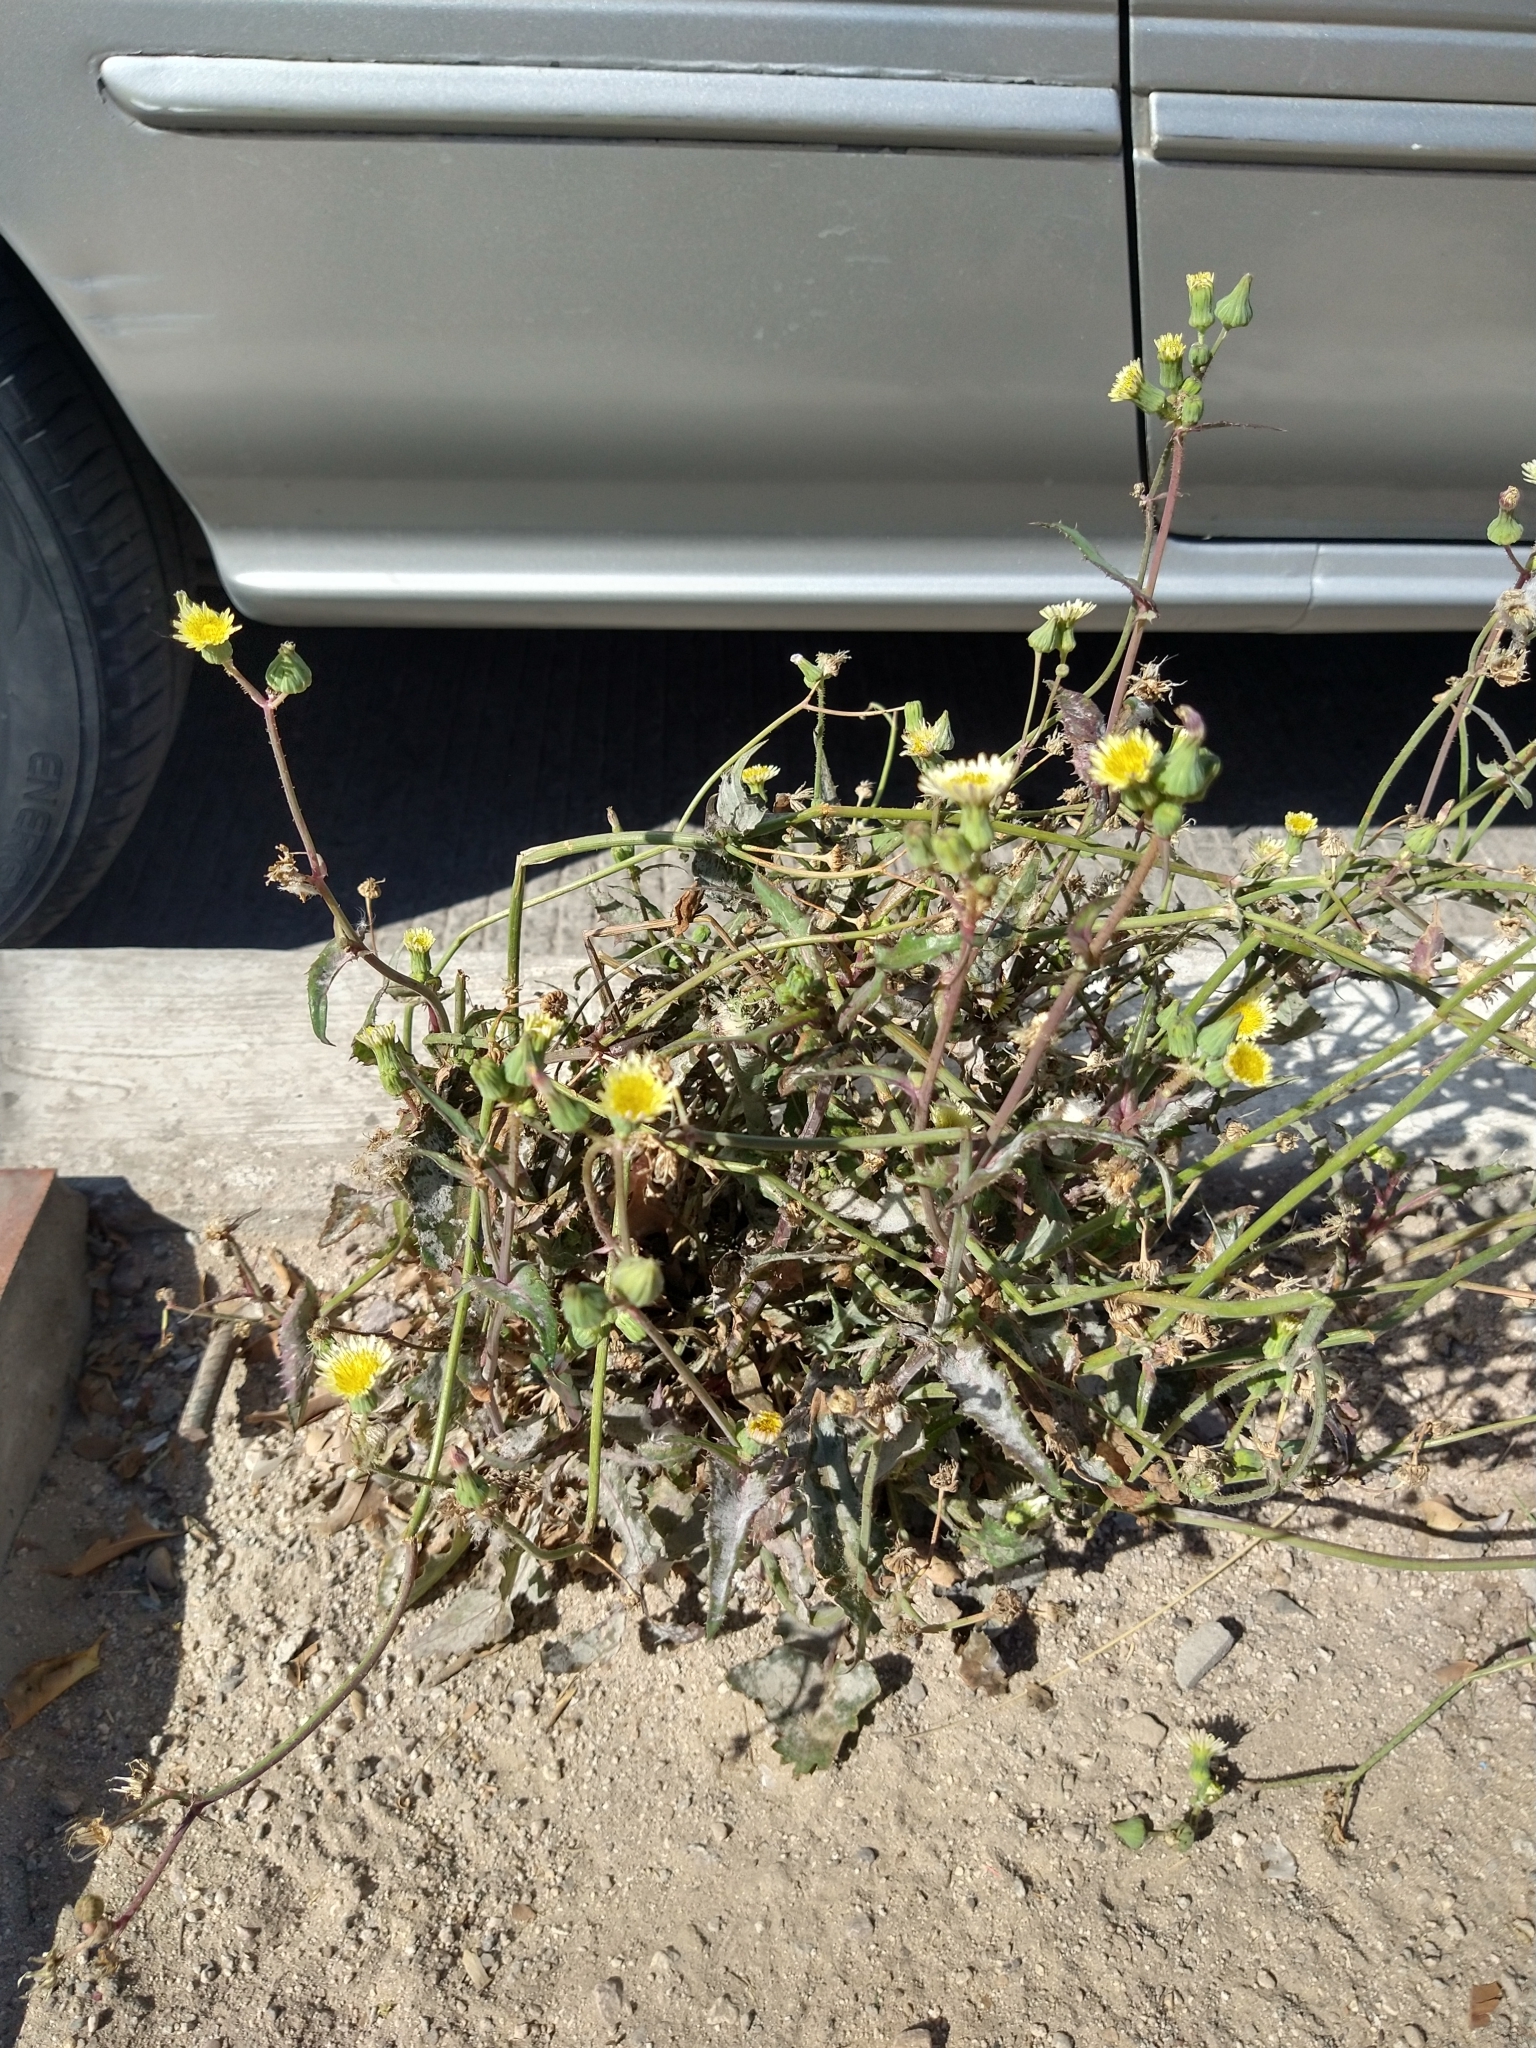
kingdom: Plantae
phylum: Tracheophyta
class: Magnoliopsida
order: Asterales
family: Asteraceae
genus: Sonchus
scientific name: Sonchus oleraceus
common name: Common sowthistle
